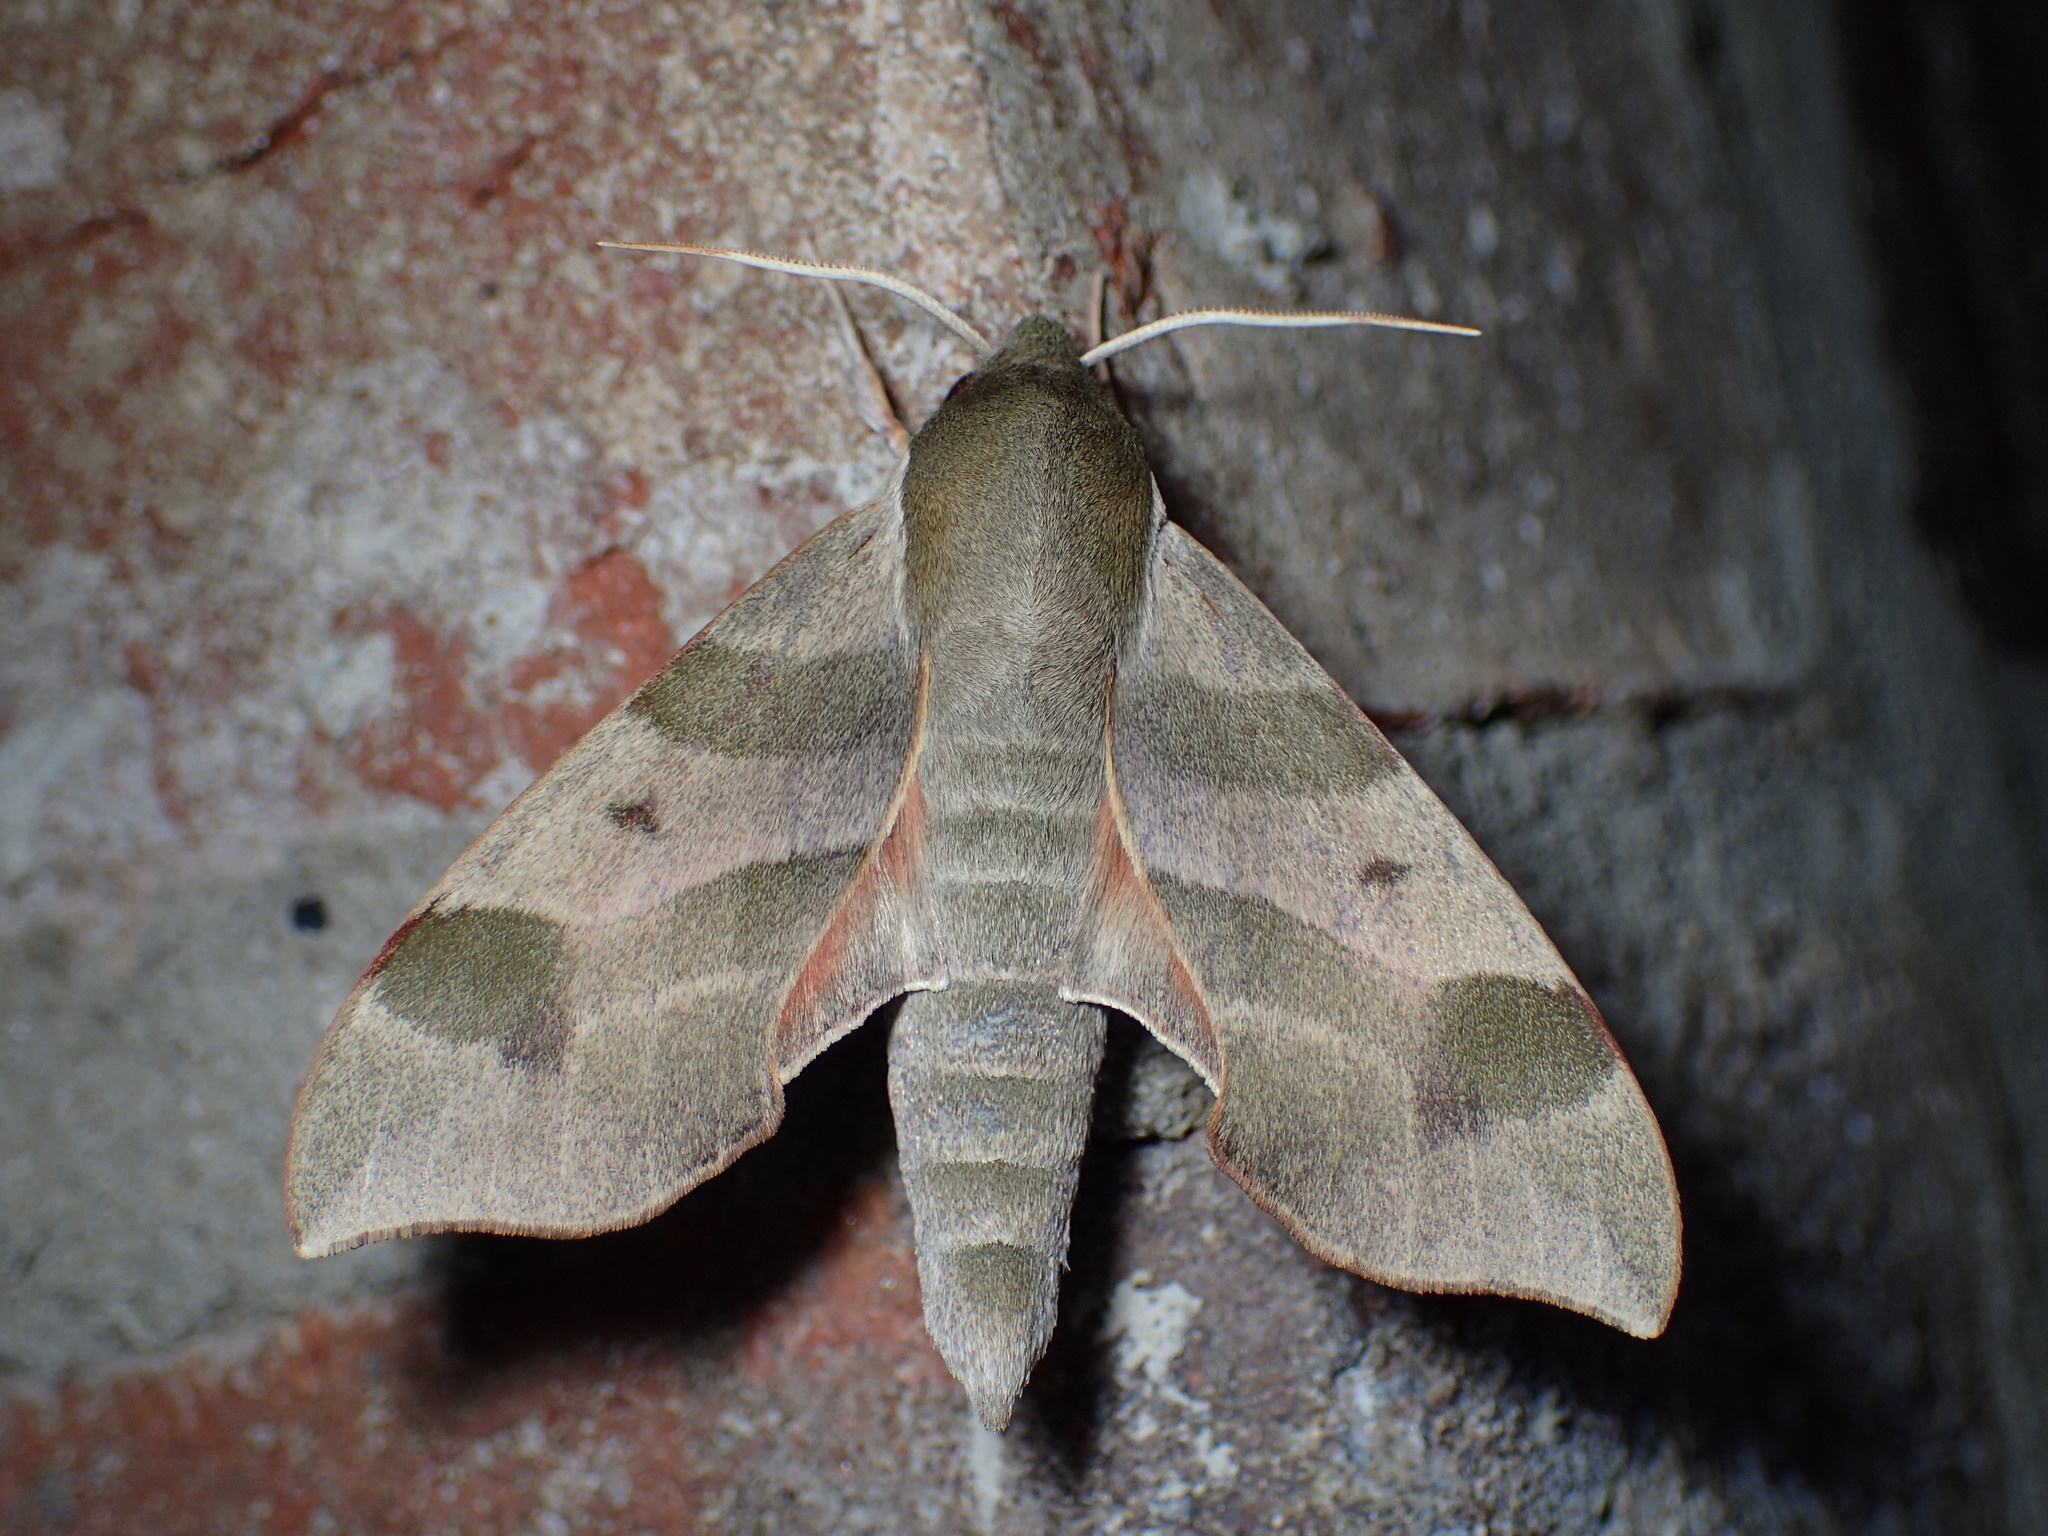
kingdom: Animalia
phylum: Arthropoda
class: Insecta
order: Lepidoptera
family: Sphingidae
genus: Darapsa
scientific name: Darapsa myron
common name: Hog sphinx
